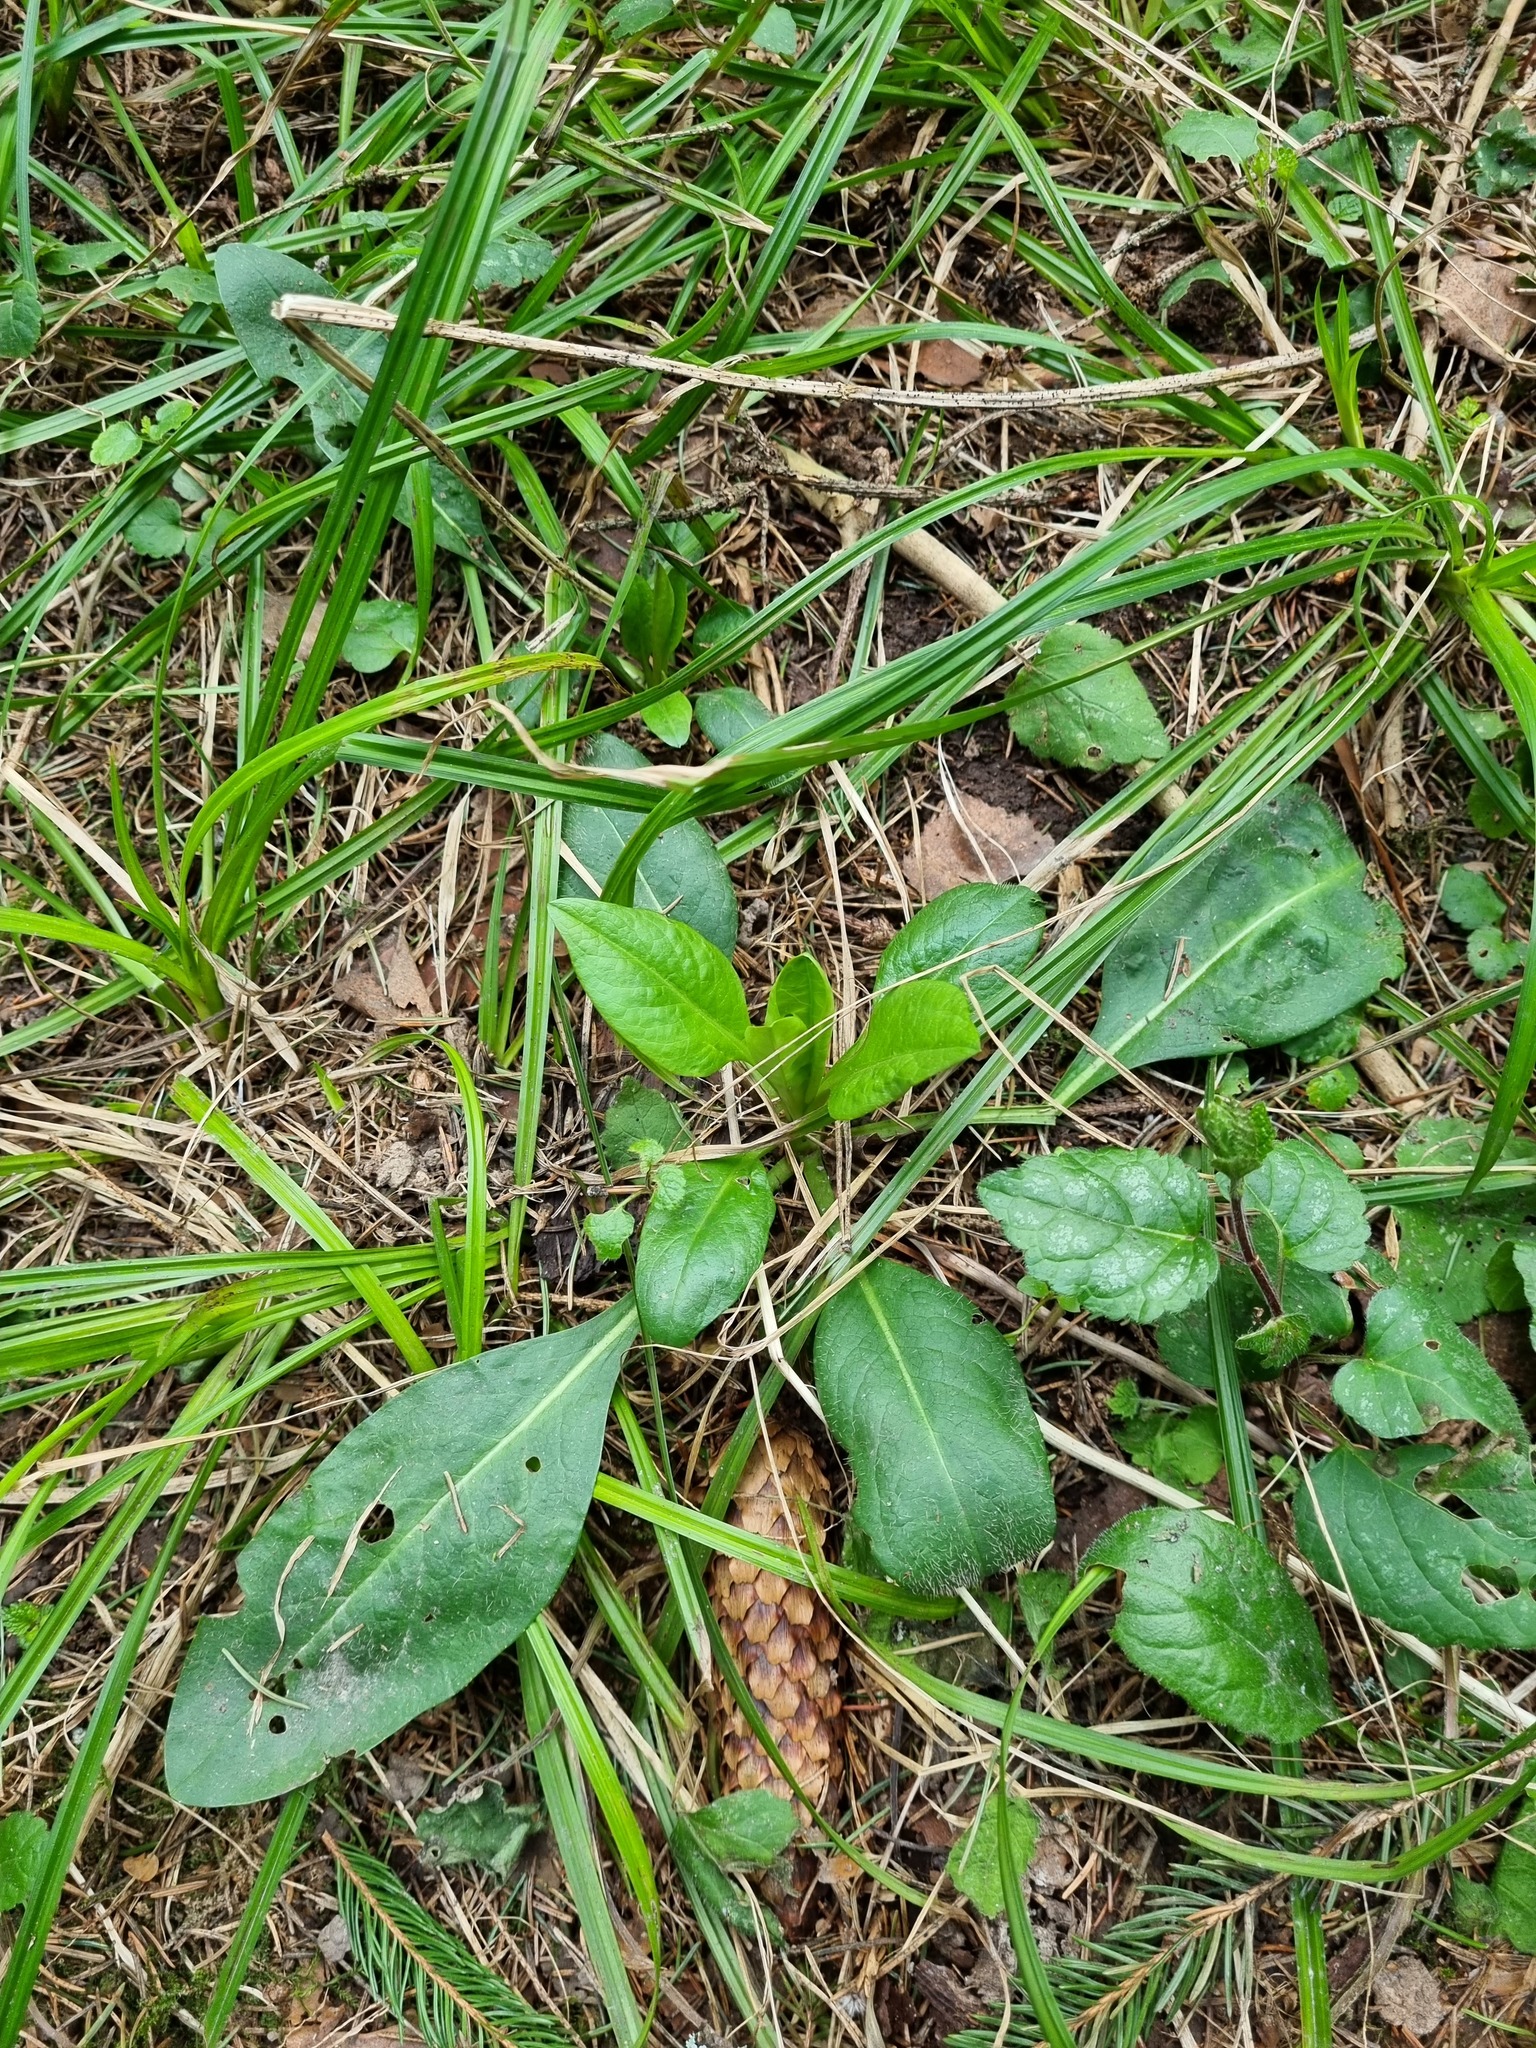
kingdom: Plantae
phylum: Tracheophyta
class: Magnoliopsida
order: Dipsacales
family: Caprifoliaceae
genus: Succisa
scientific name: Succisa pratensis
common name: Devil's-bit
